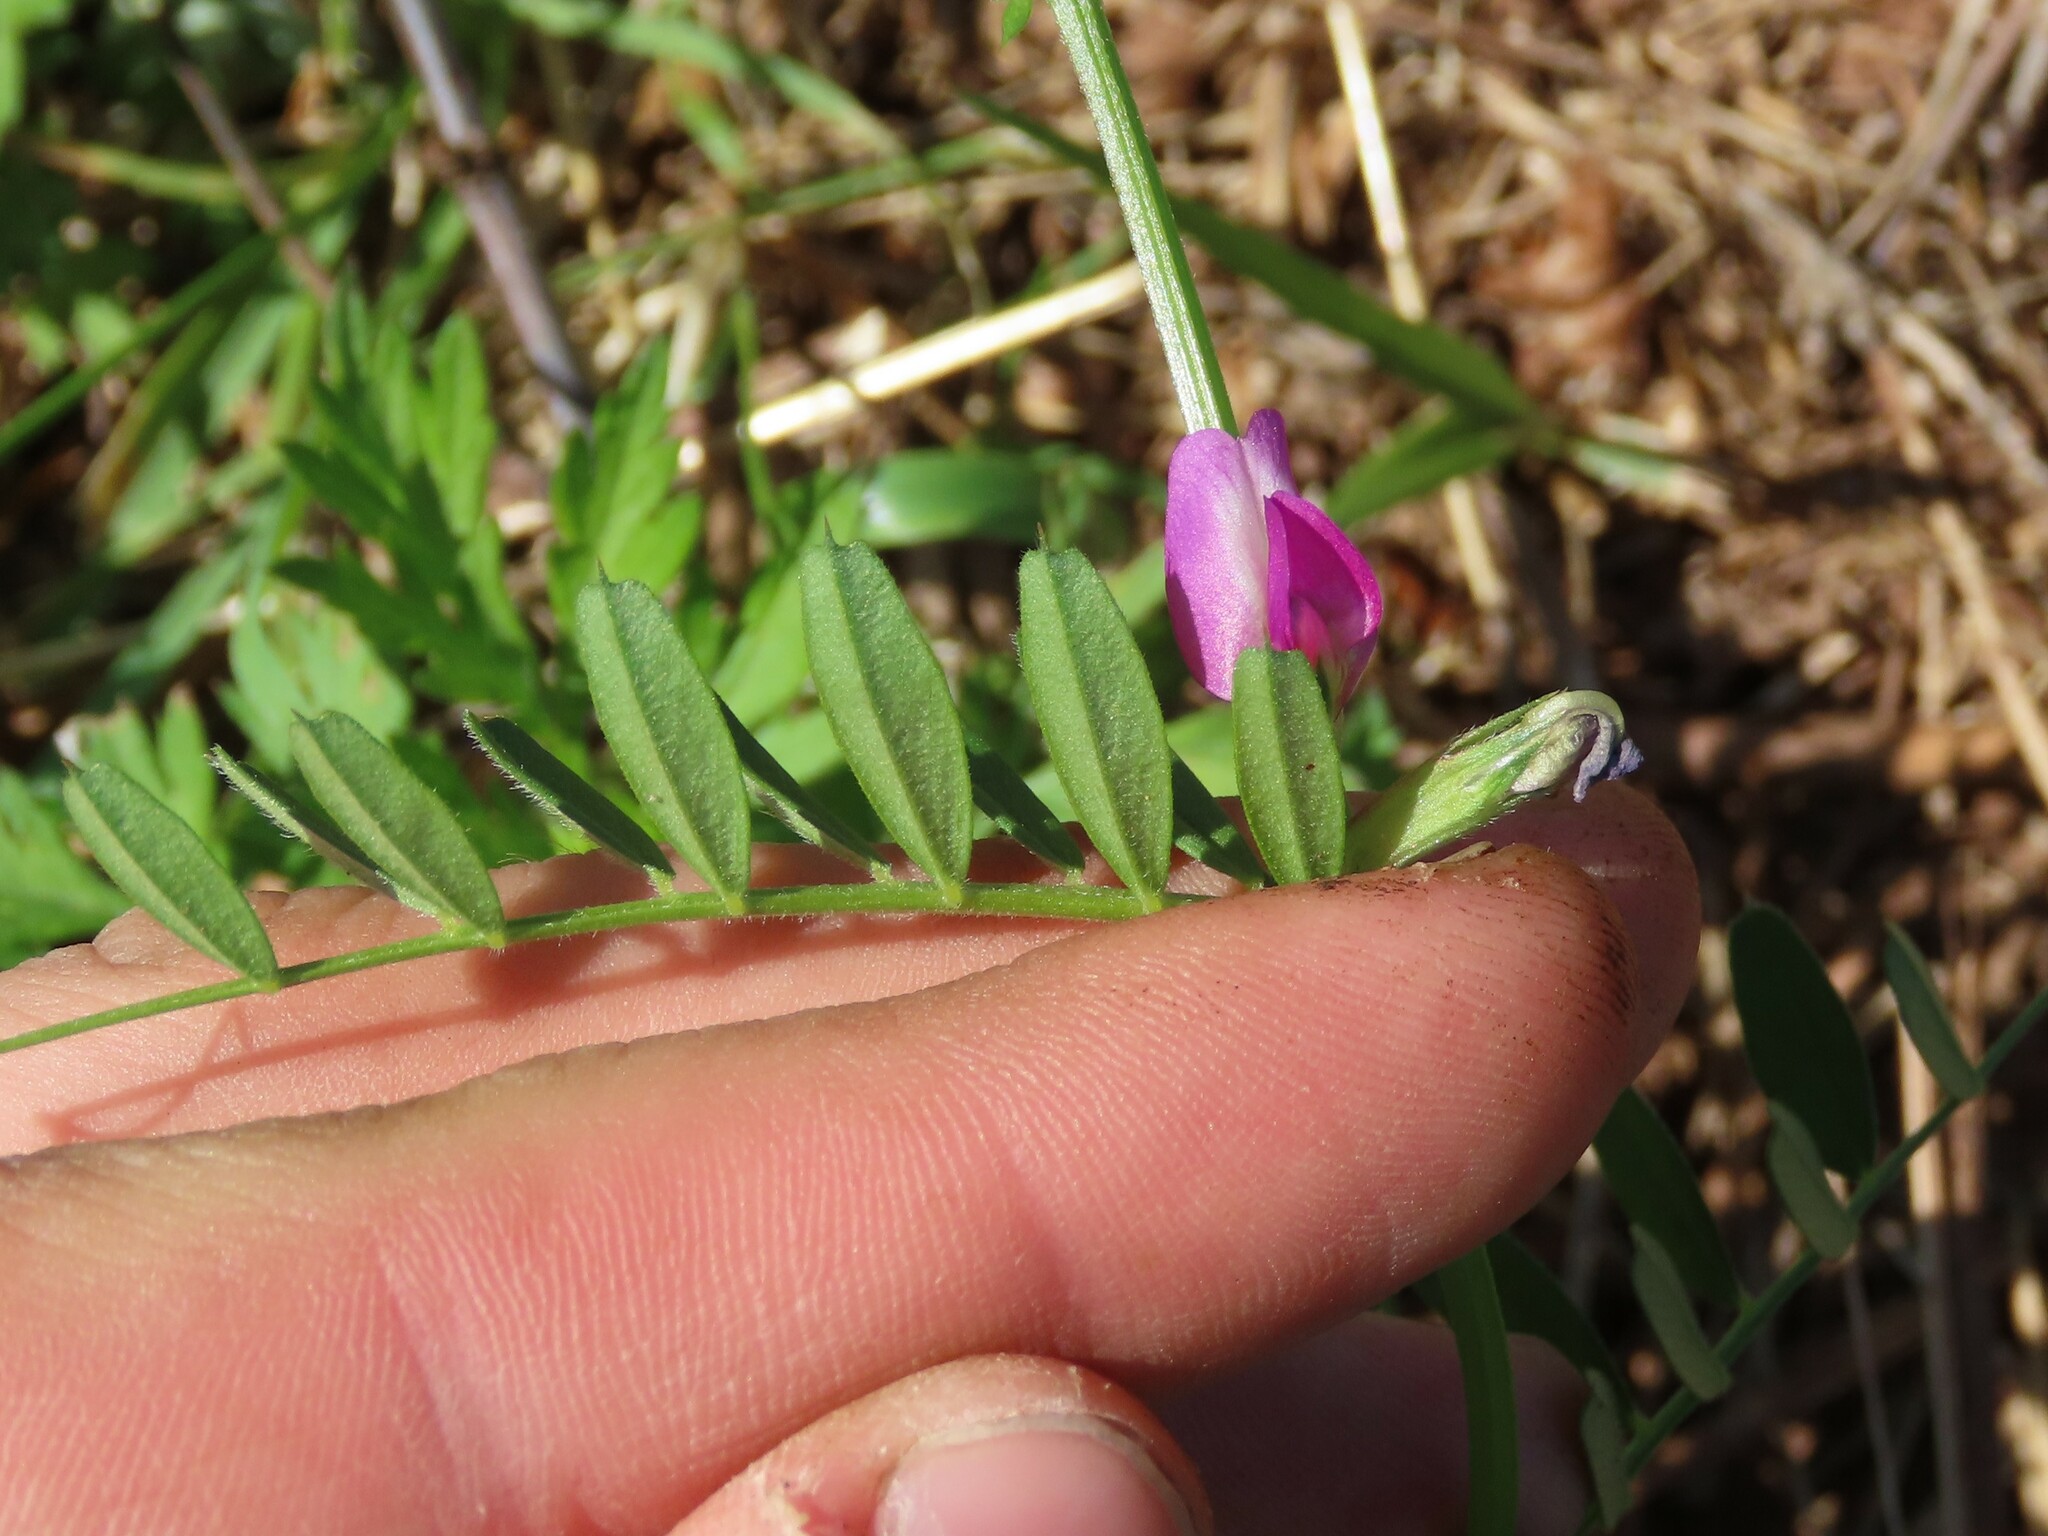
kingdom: Plantae
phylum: Tracheophyta
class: Magnoliopsida
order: Fabales
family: Fabaceae
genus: Vicia
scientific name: Vicia sativa
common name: Garden vetch
